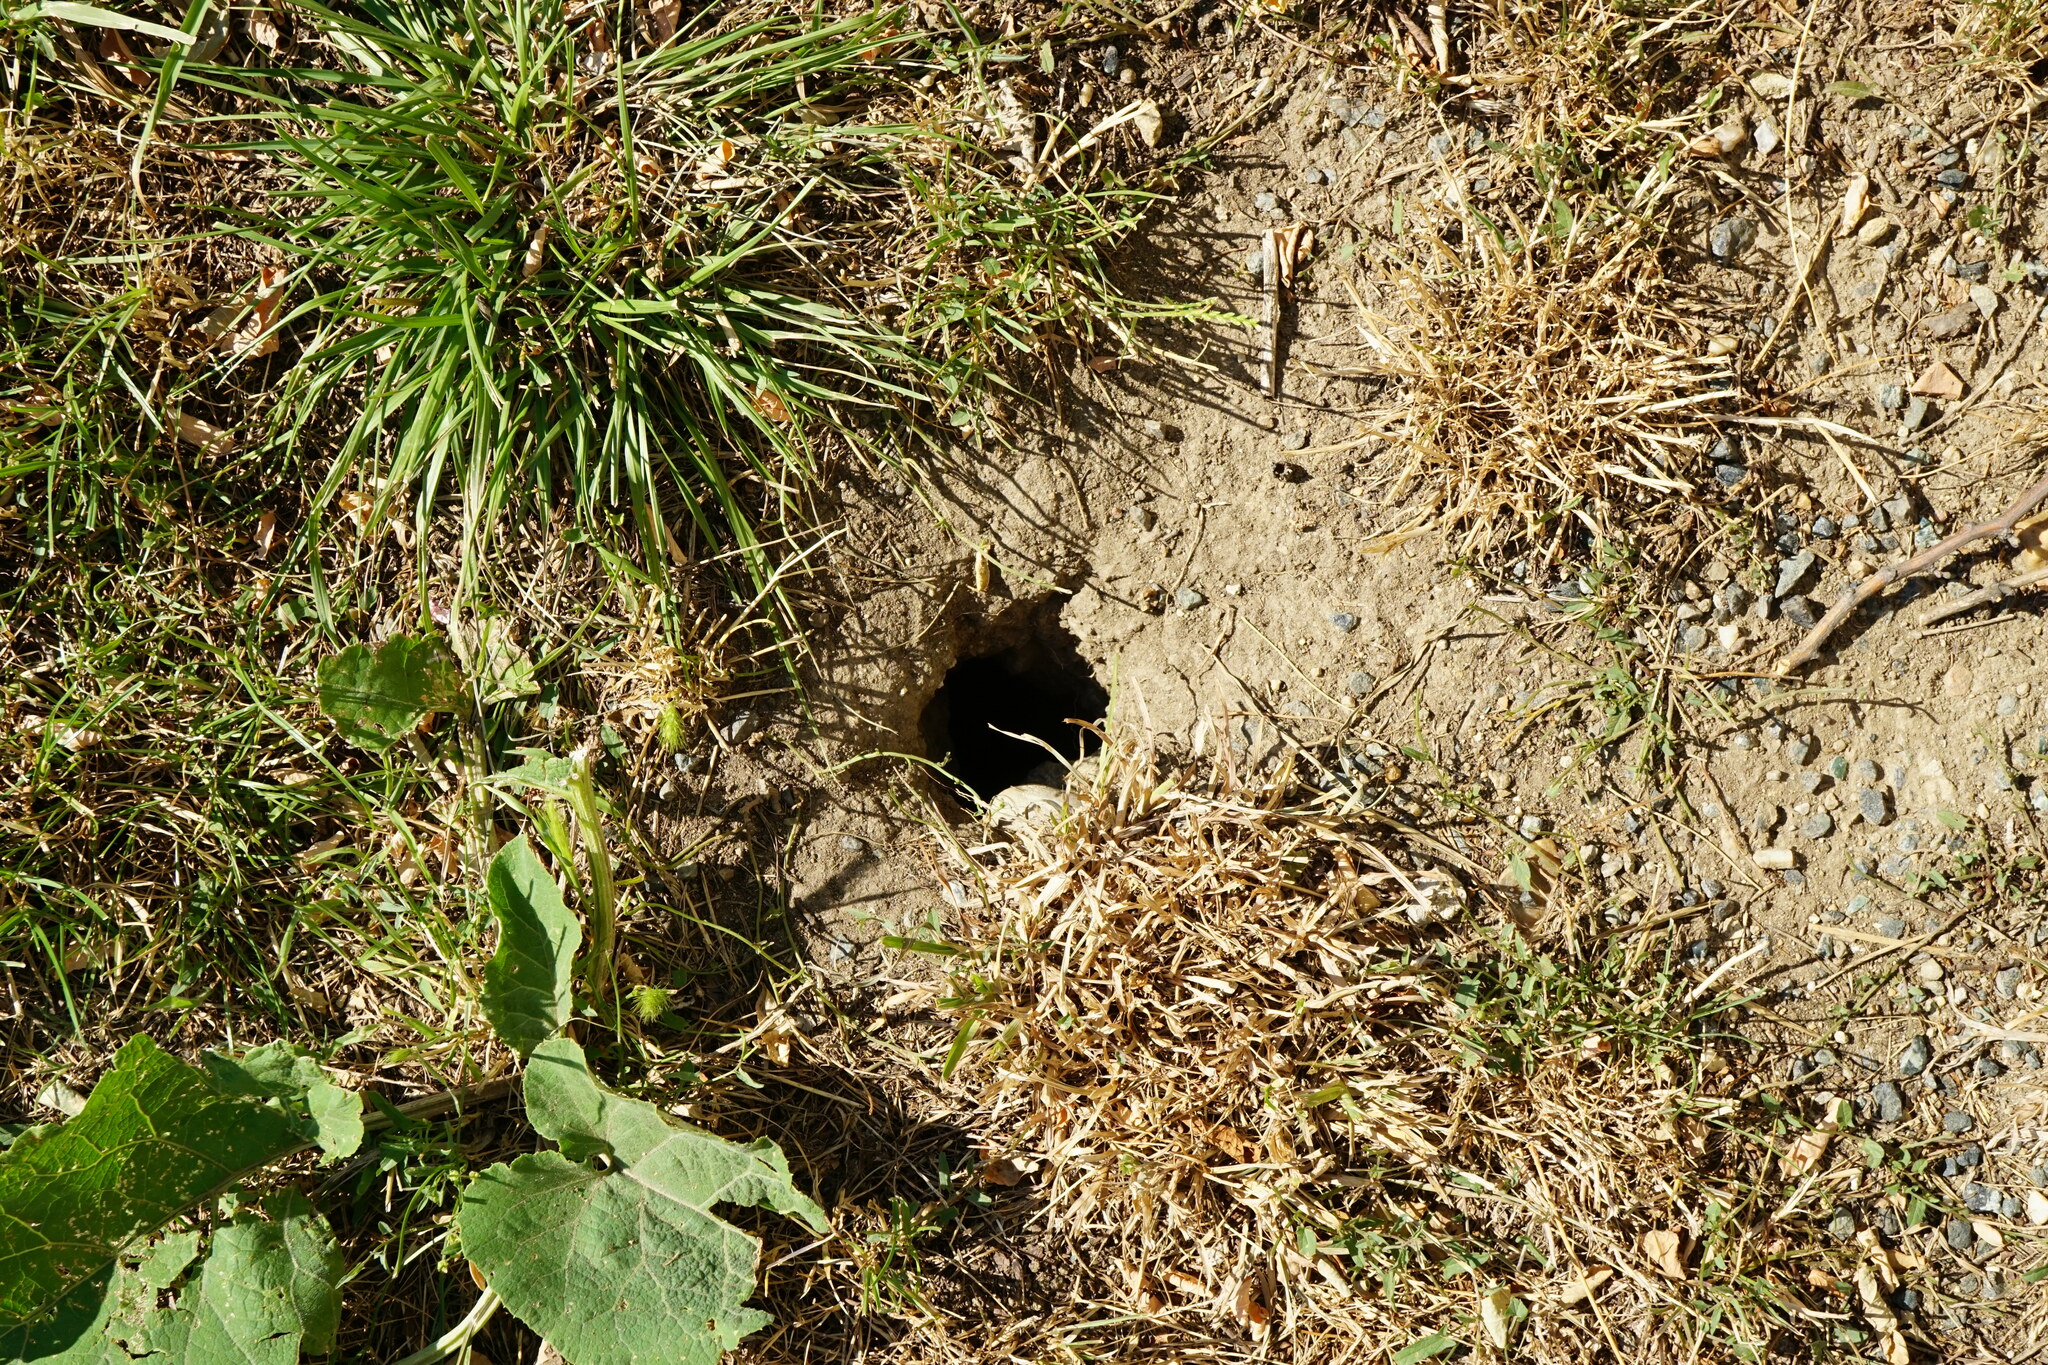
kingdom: Animalia
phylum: Chordata
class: Mammalia
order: Rodentia
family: Sciuridae
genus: Spermophilus
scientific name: Spermophilus citellus
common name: European ground squirrel
